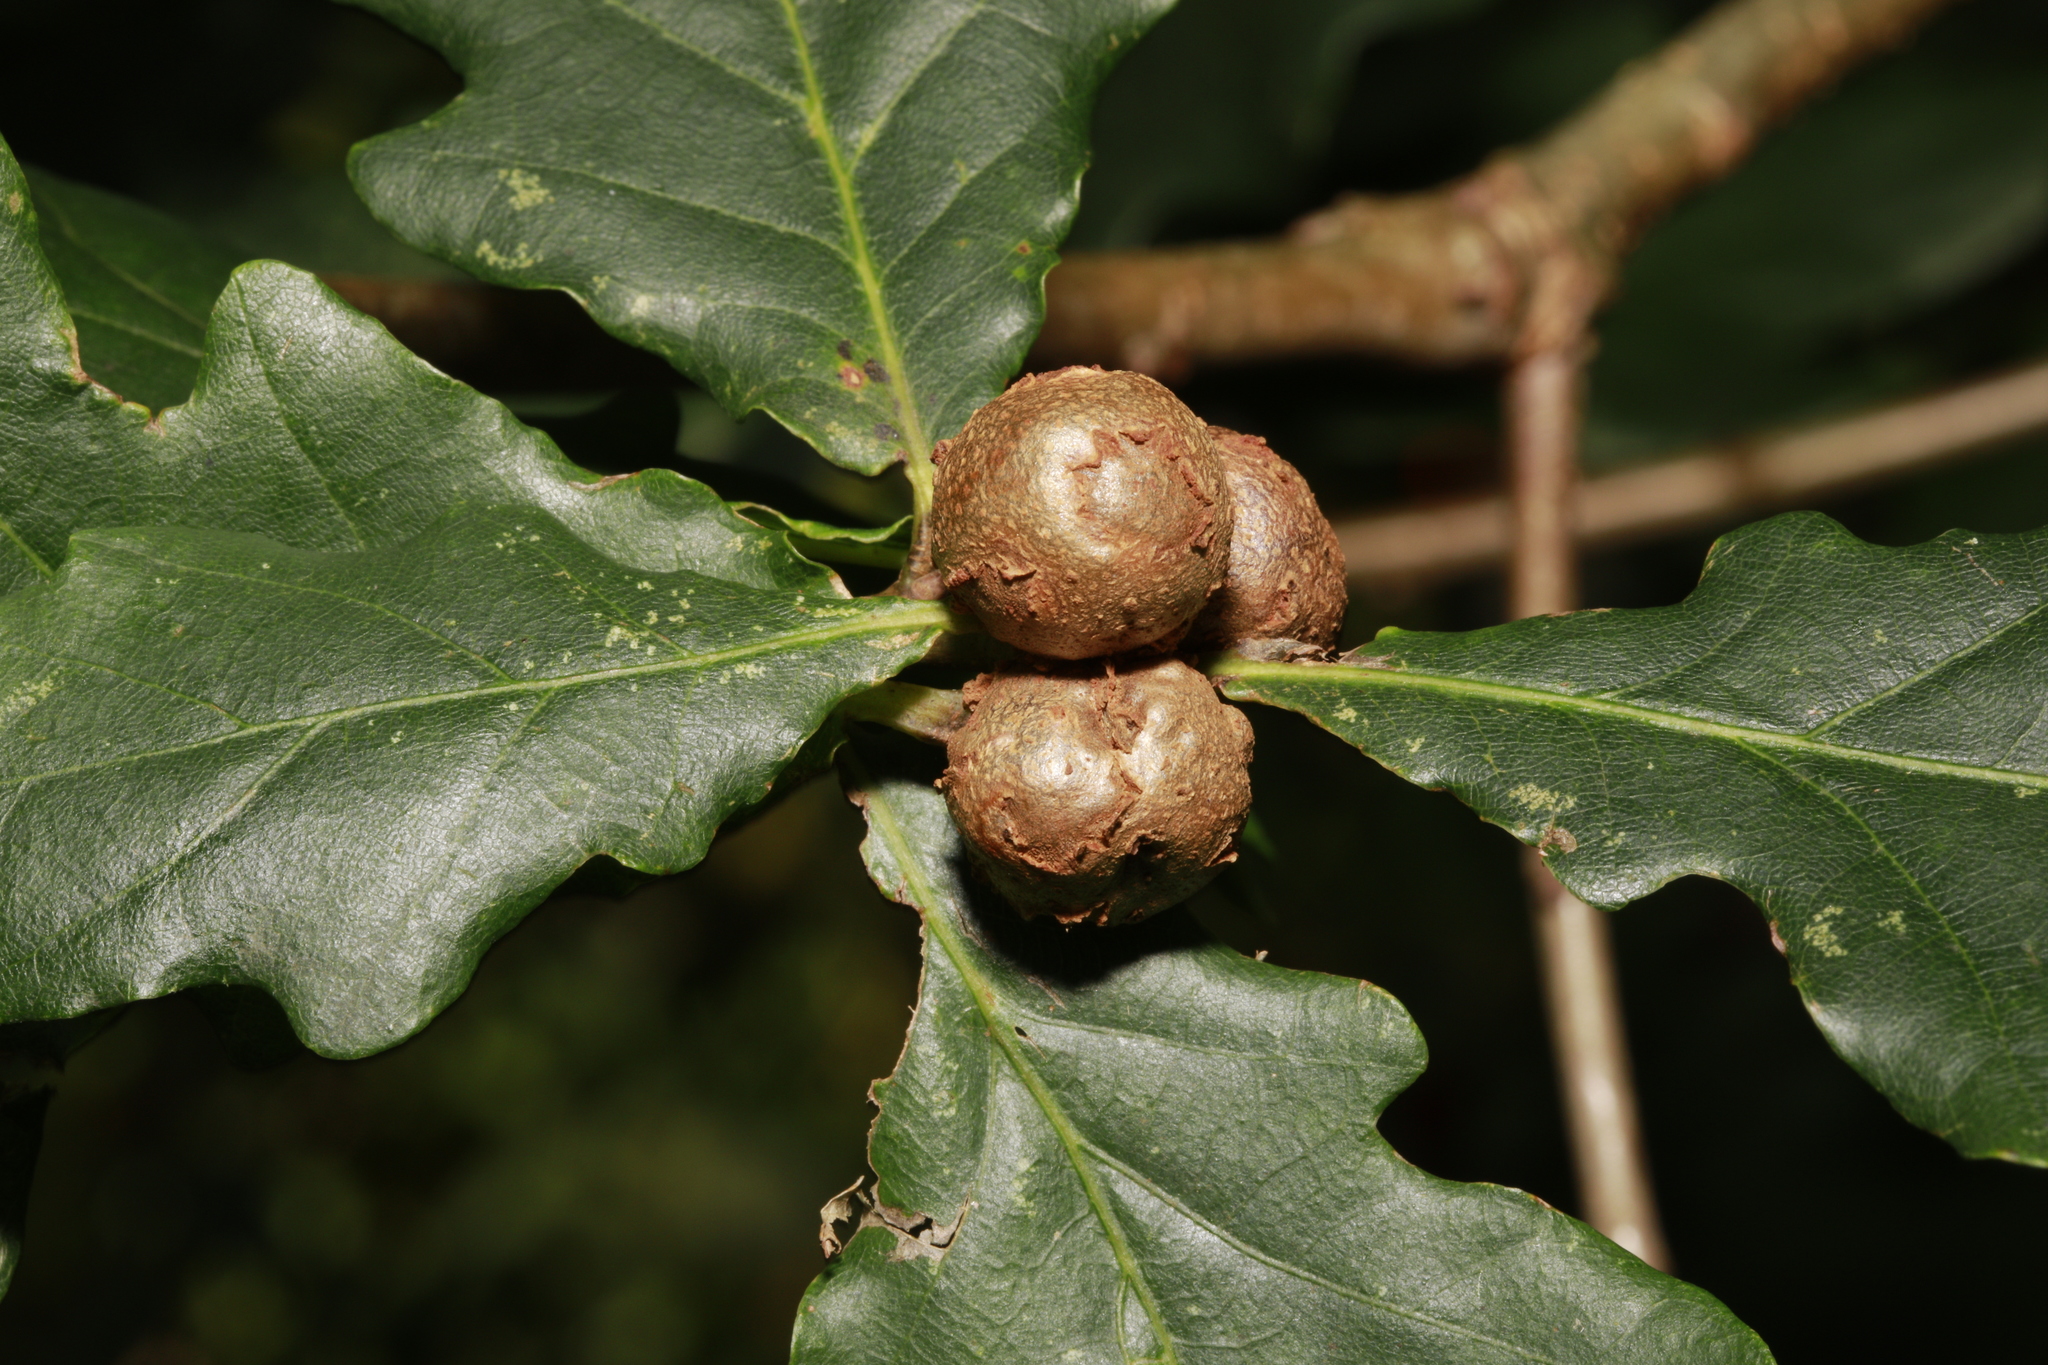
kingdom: Animalia
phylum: Arthropoda
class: Insecta
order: Hymenoptera
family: Cynipidae
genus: Andricus
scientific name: Andricus lignicolus
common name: Cola-nut gall
